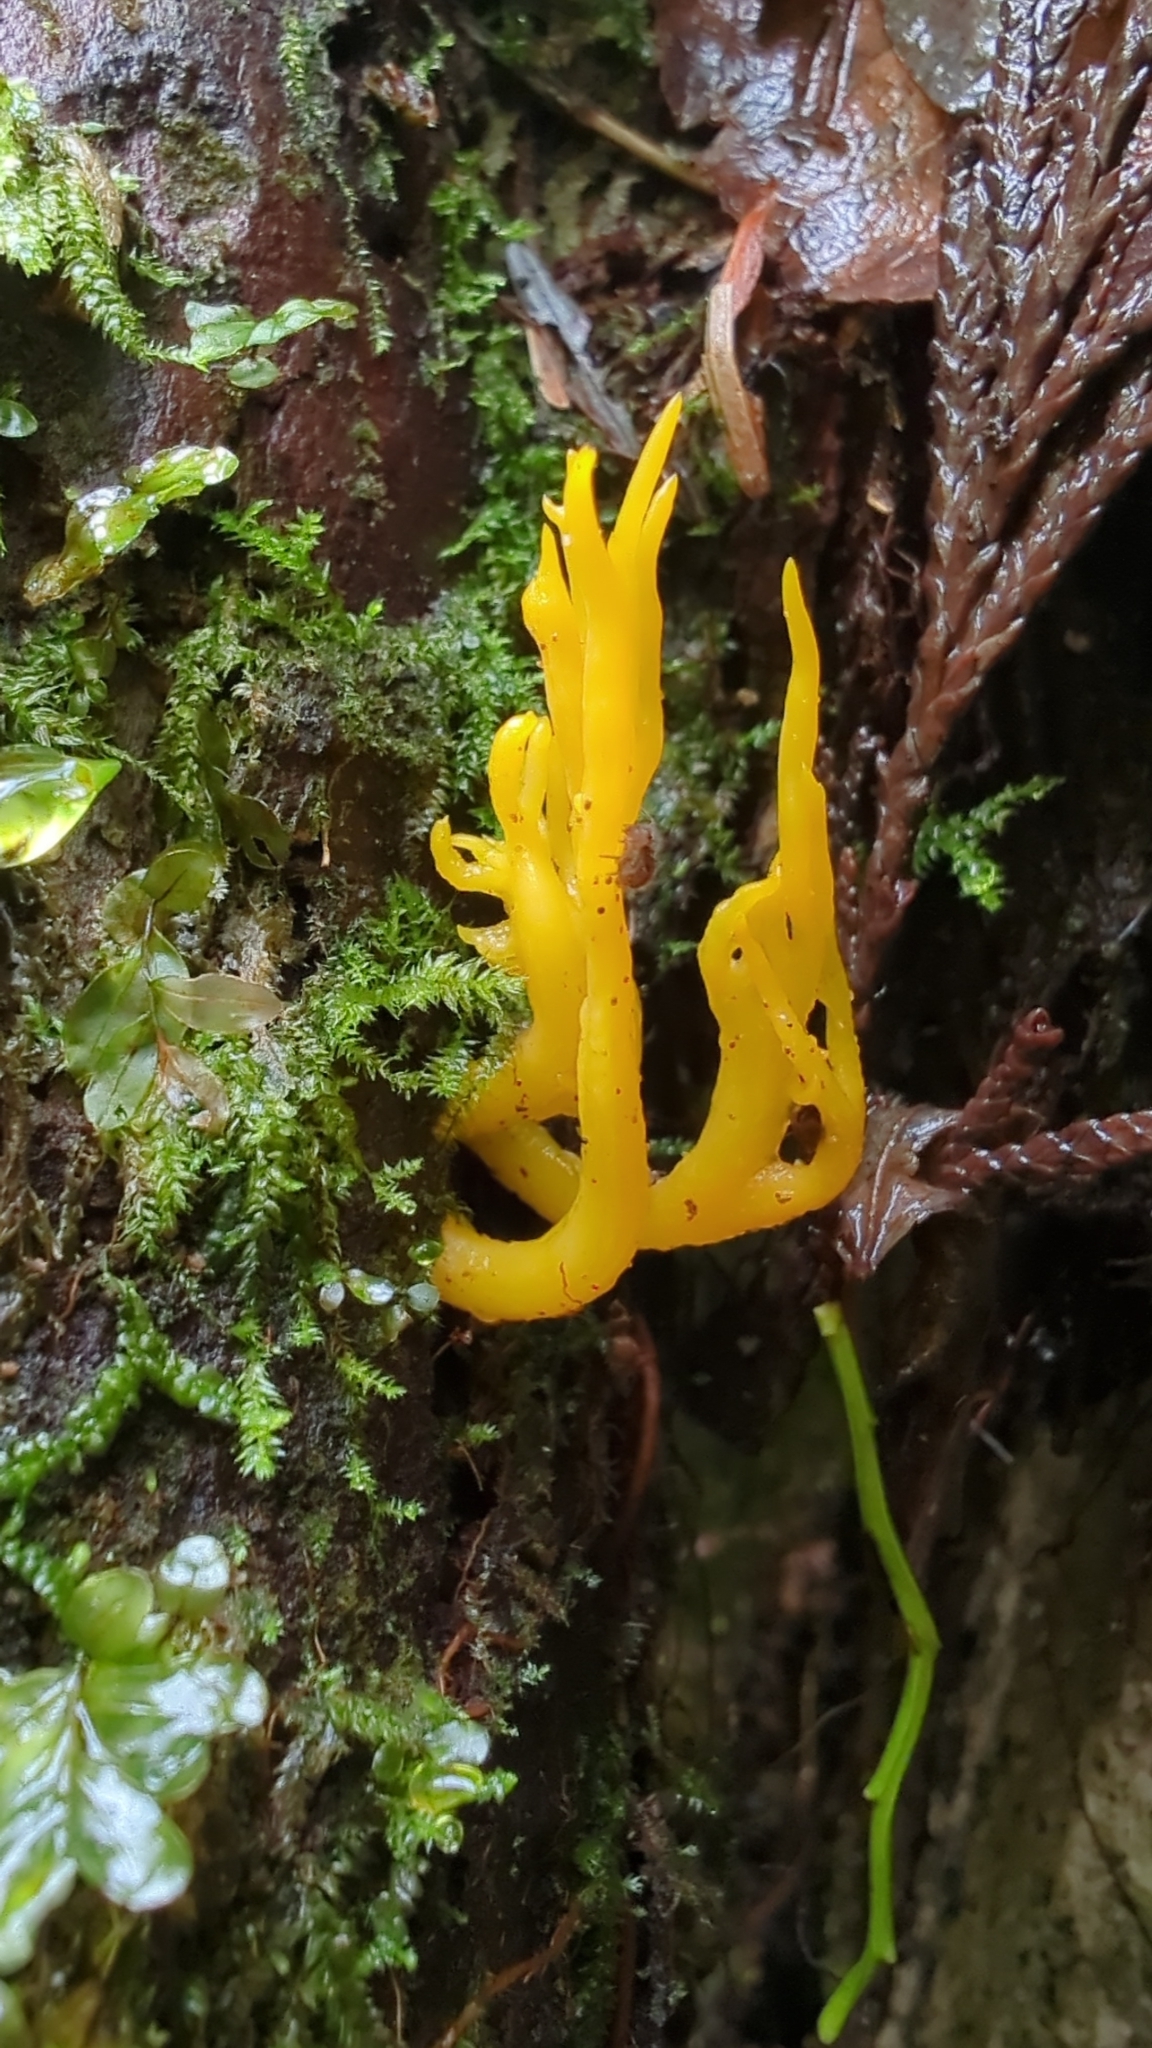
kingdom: Fungi
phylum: Basidiomycota
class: Dacrymycetes
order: Dacrymycetales
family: Dacrymycetaceae
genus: Calocera
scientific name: Calocera viscosa
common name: Yellow stagshorn
